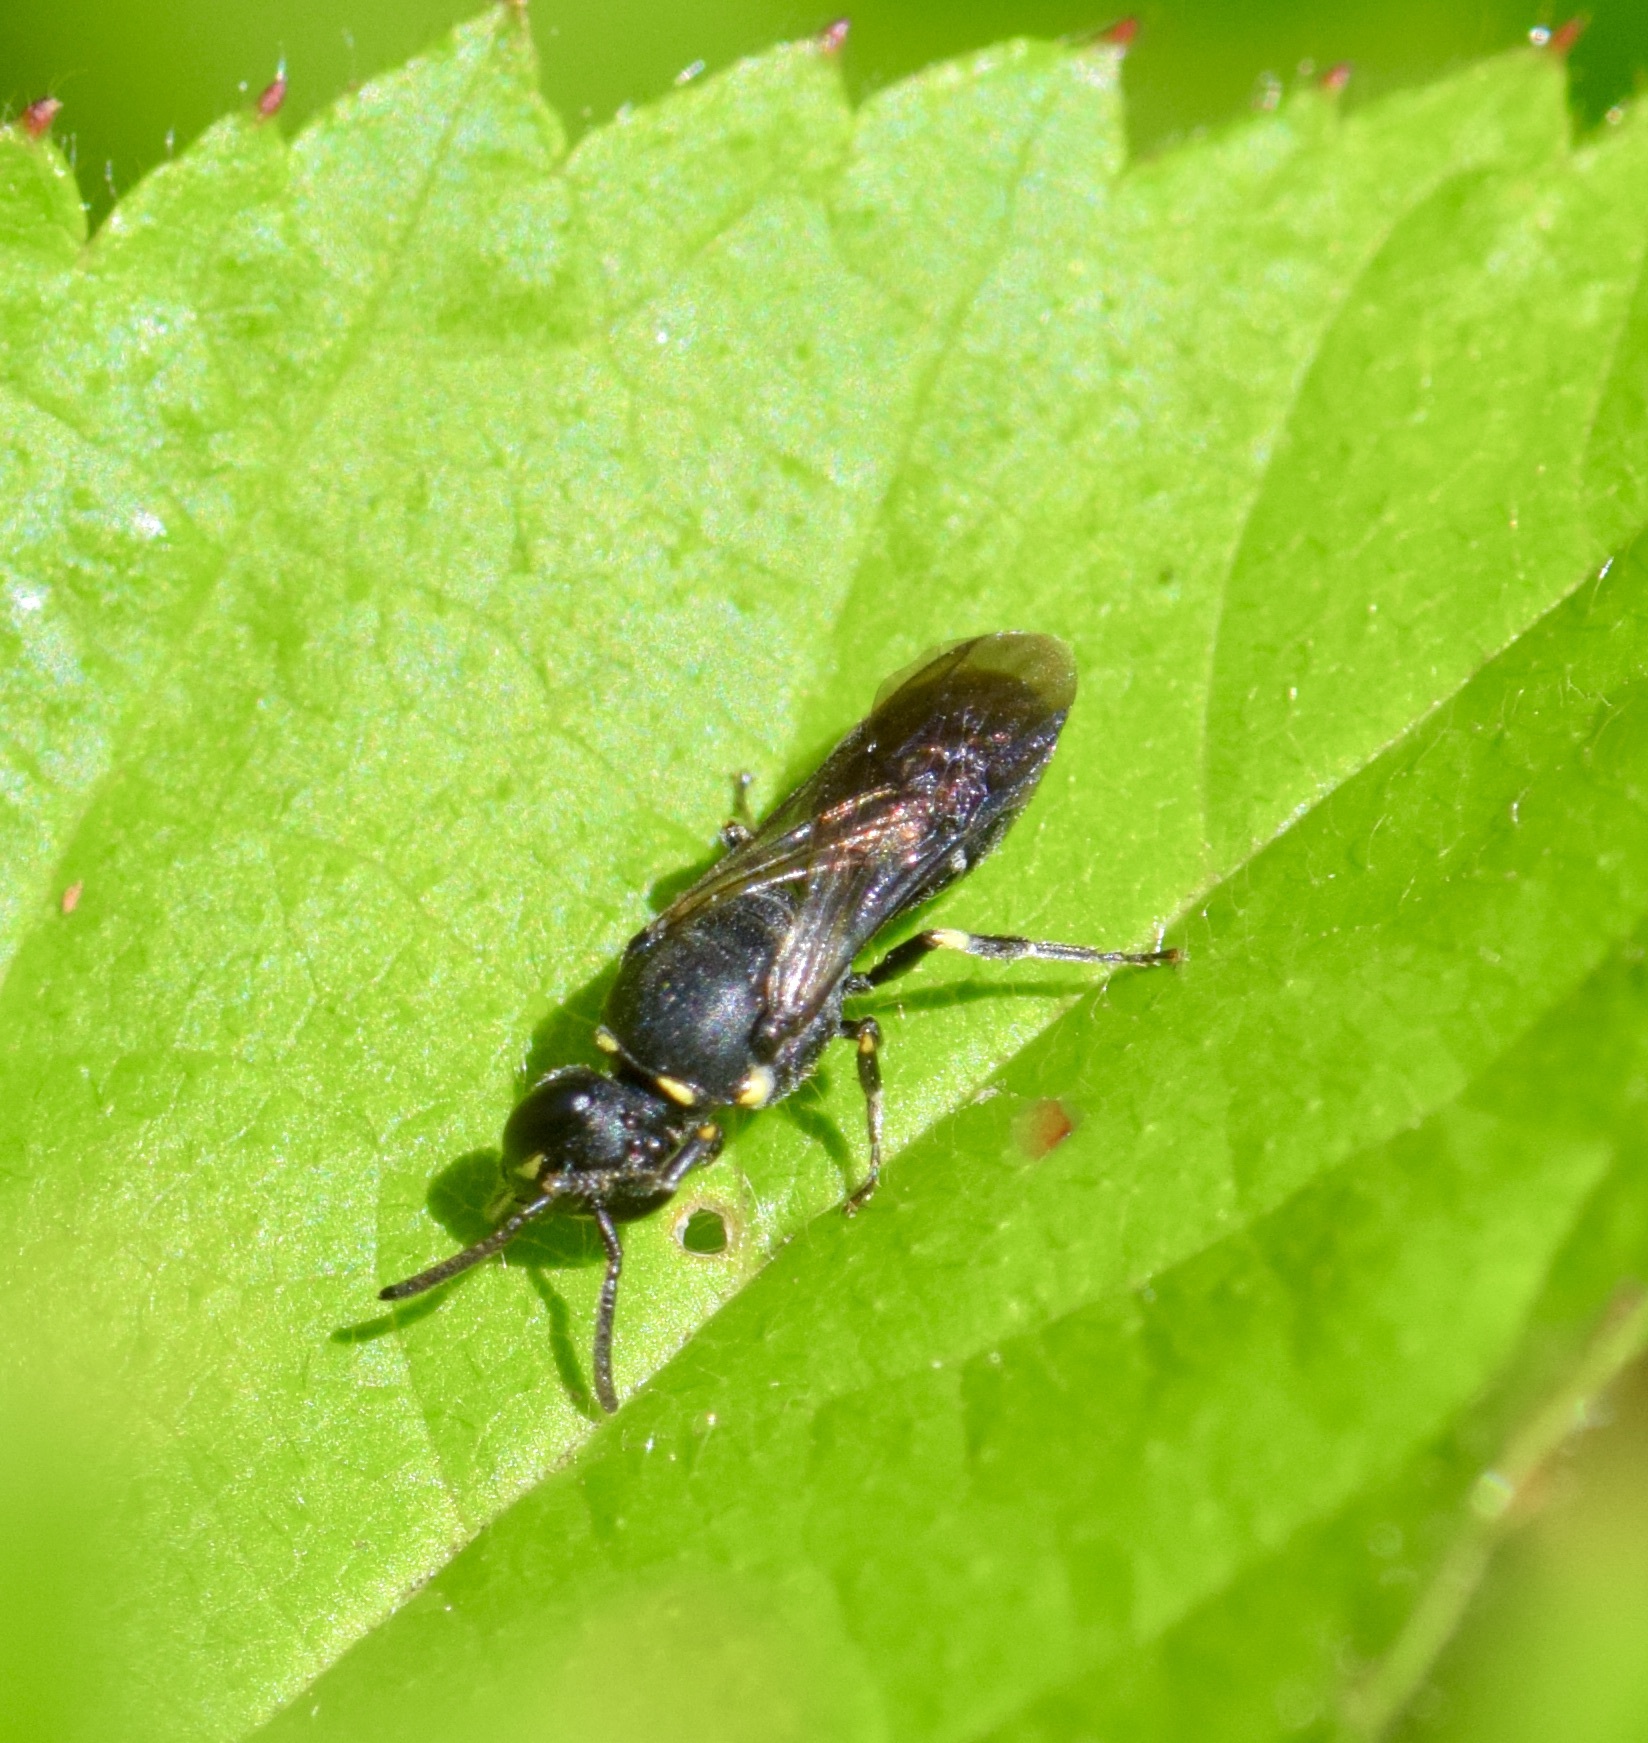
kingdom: Animalia
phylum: Arthropoda
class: Insecta
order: Hymenoptera
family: Colletidae
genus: Hylaeus
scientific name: Hylaeus modestus
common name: Yellow-faced bee
